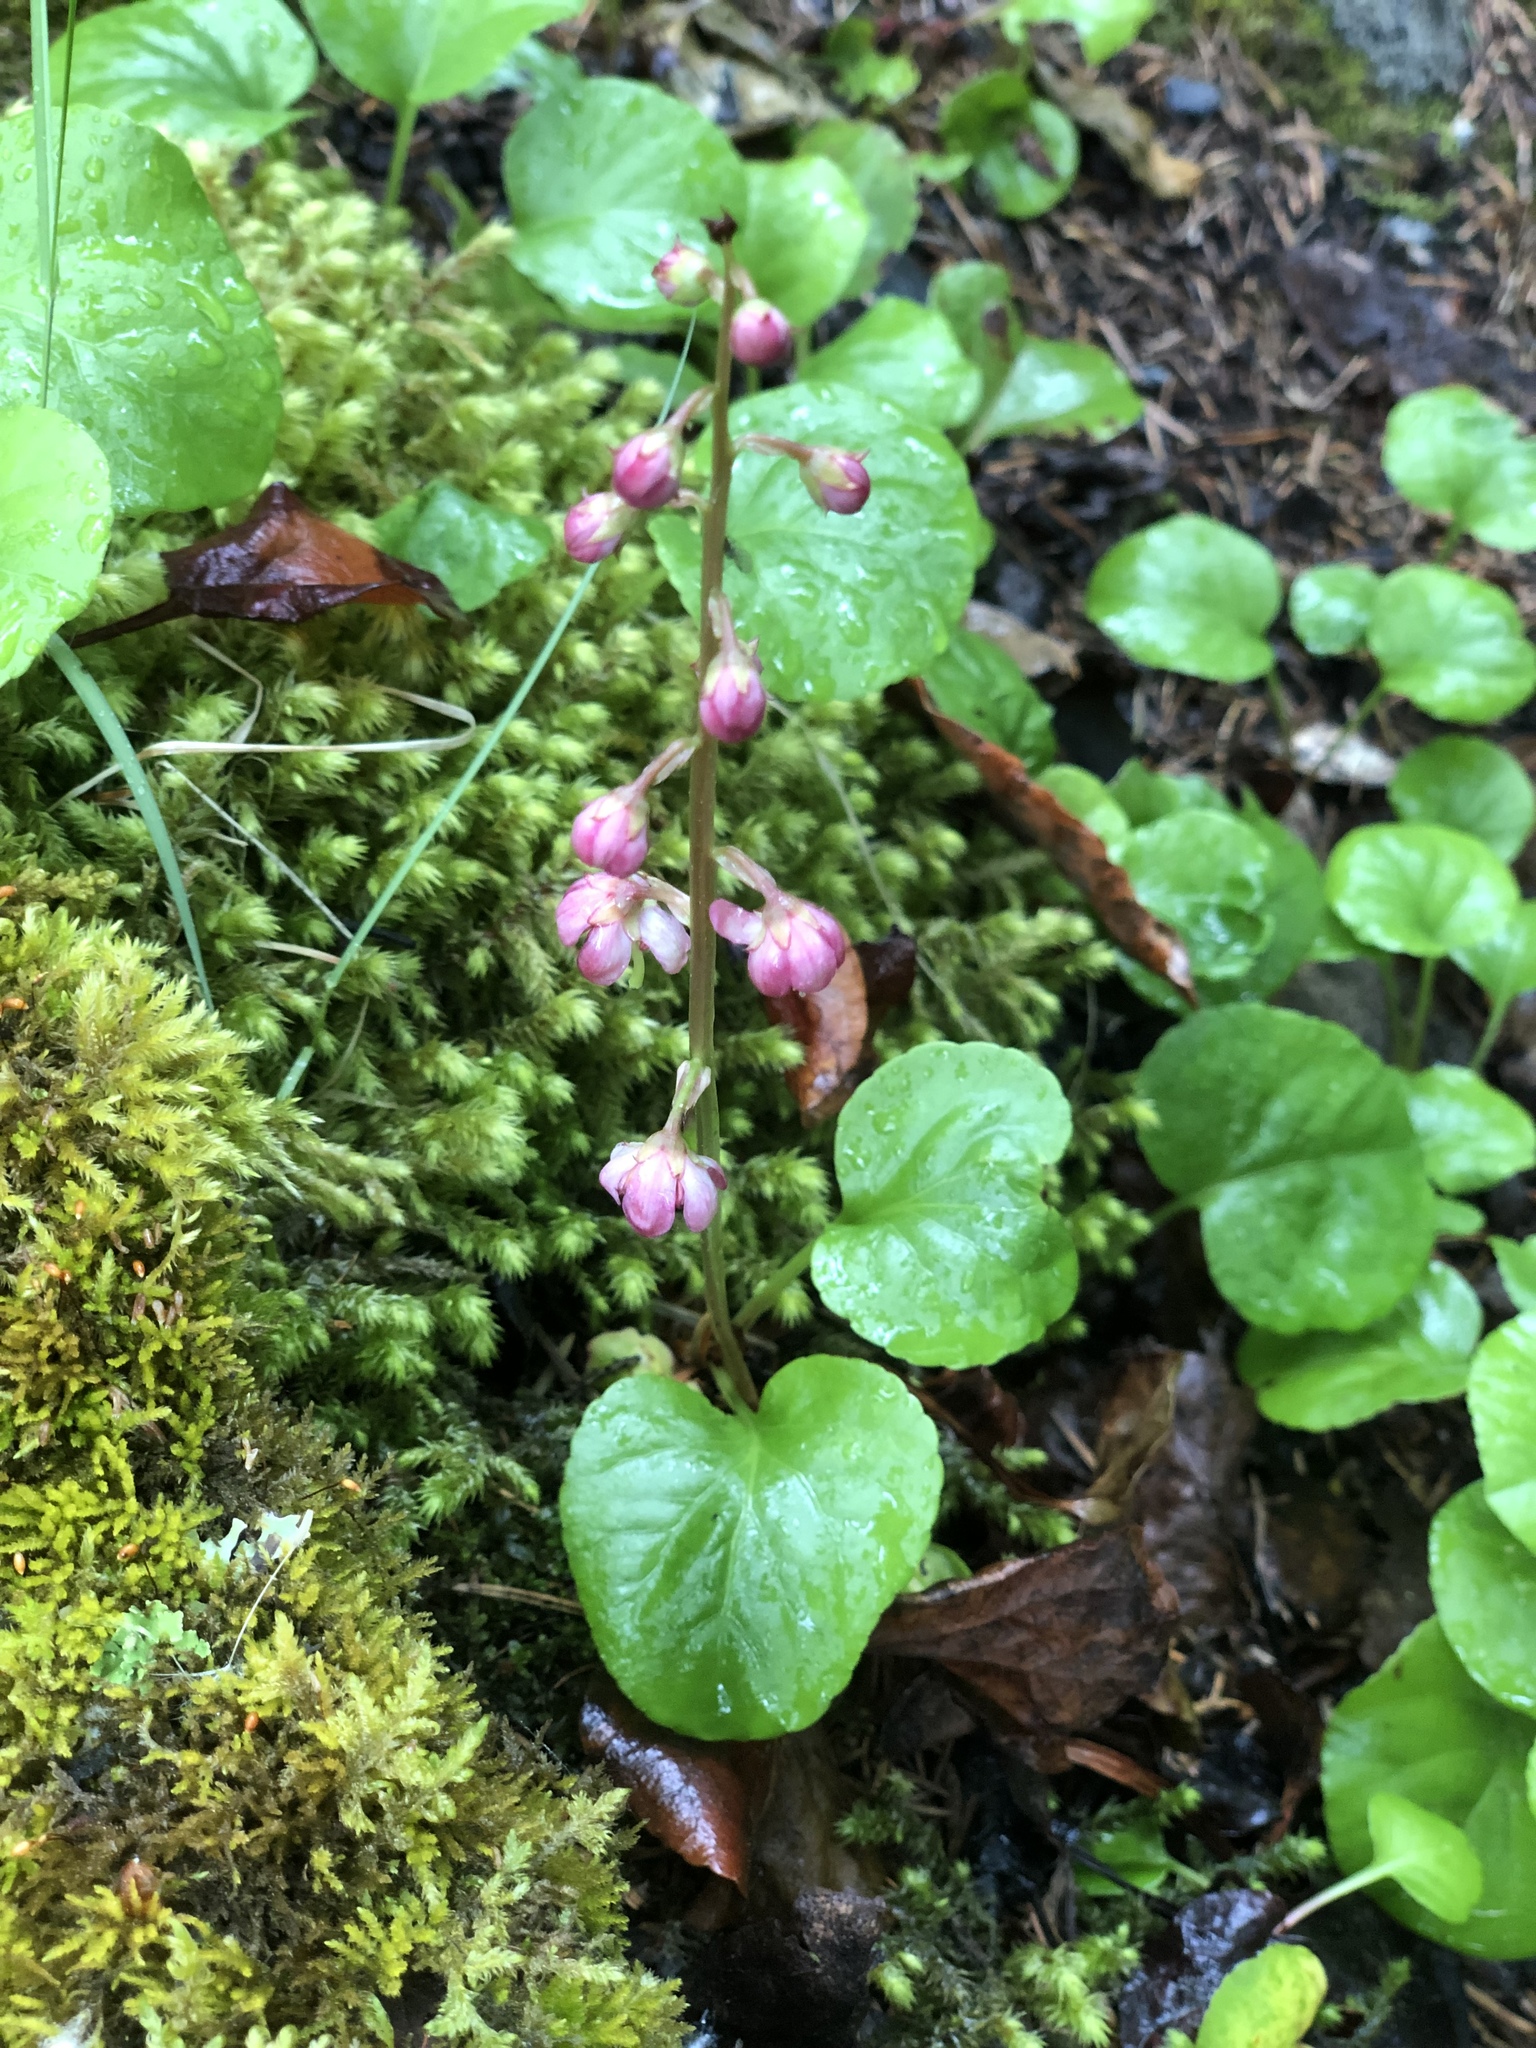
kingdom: Plantae
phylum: Tracheophyta
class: Magnoliopsida
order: Ericales
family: Ericaceae
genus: Pyrola
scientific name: Pyrola asarifolia
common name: Bog wintergreen
